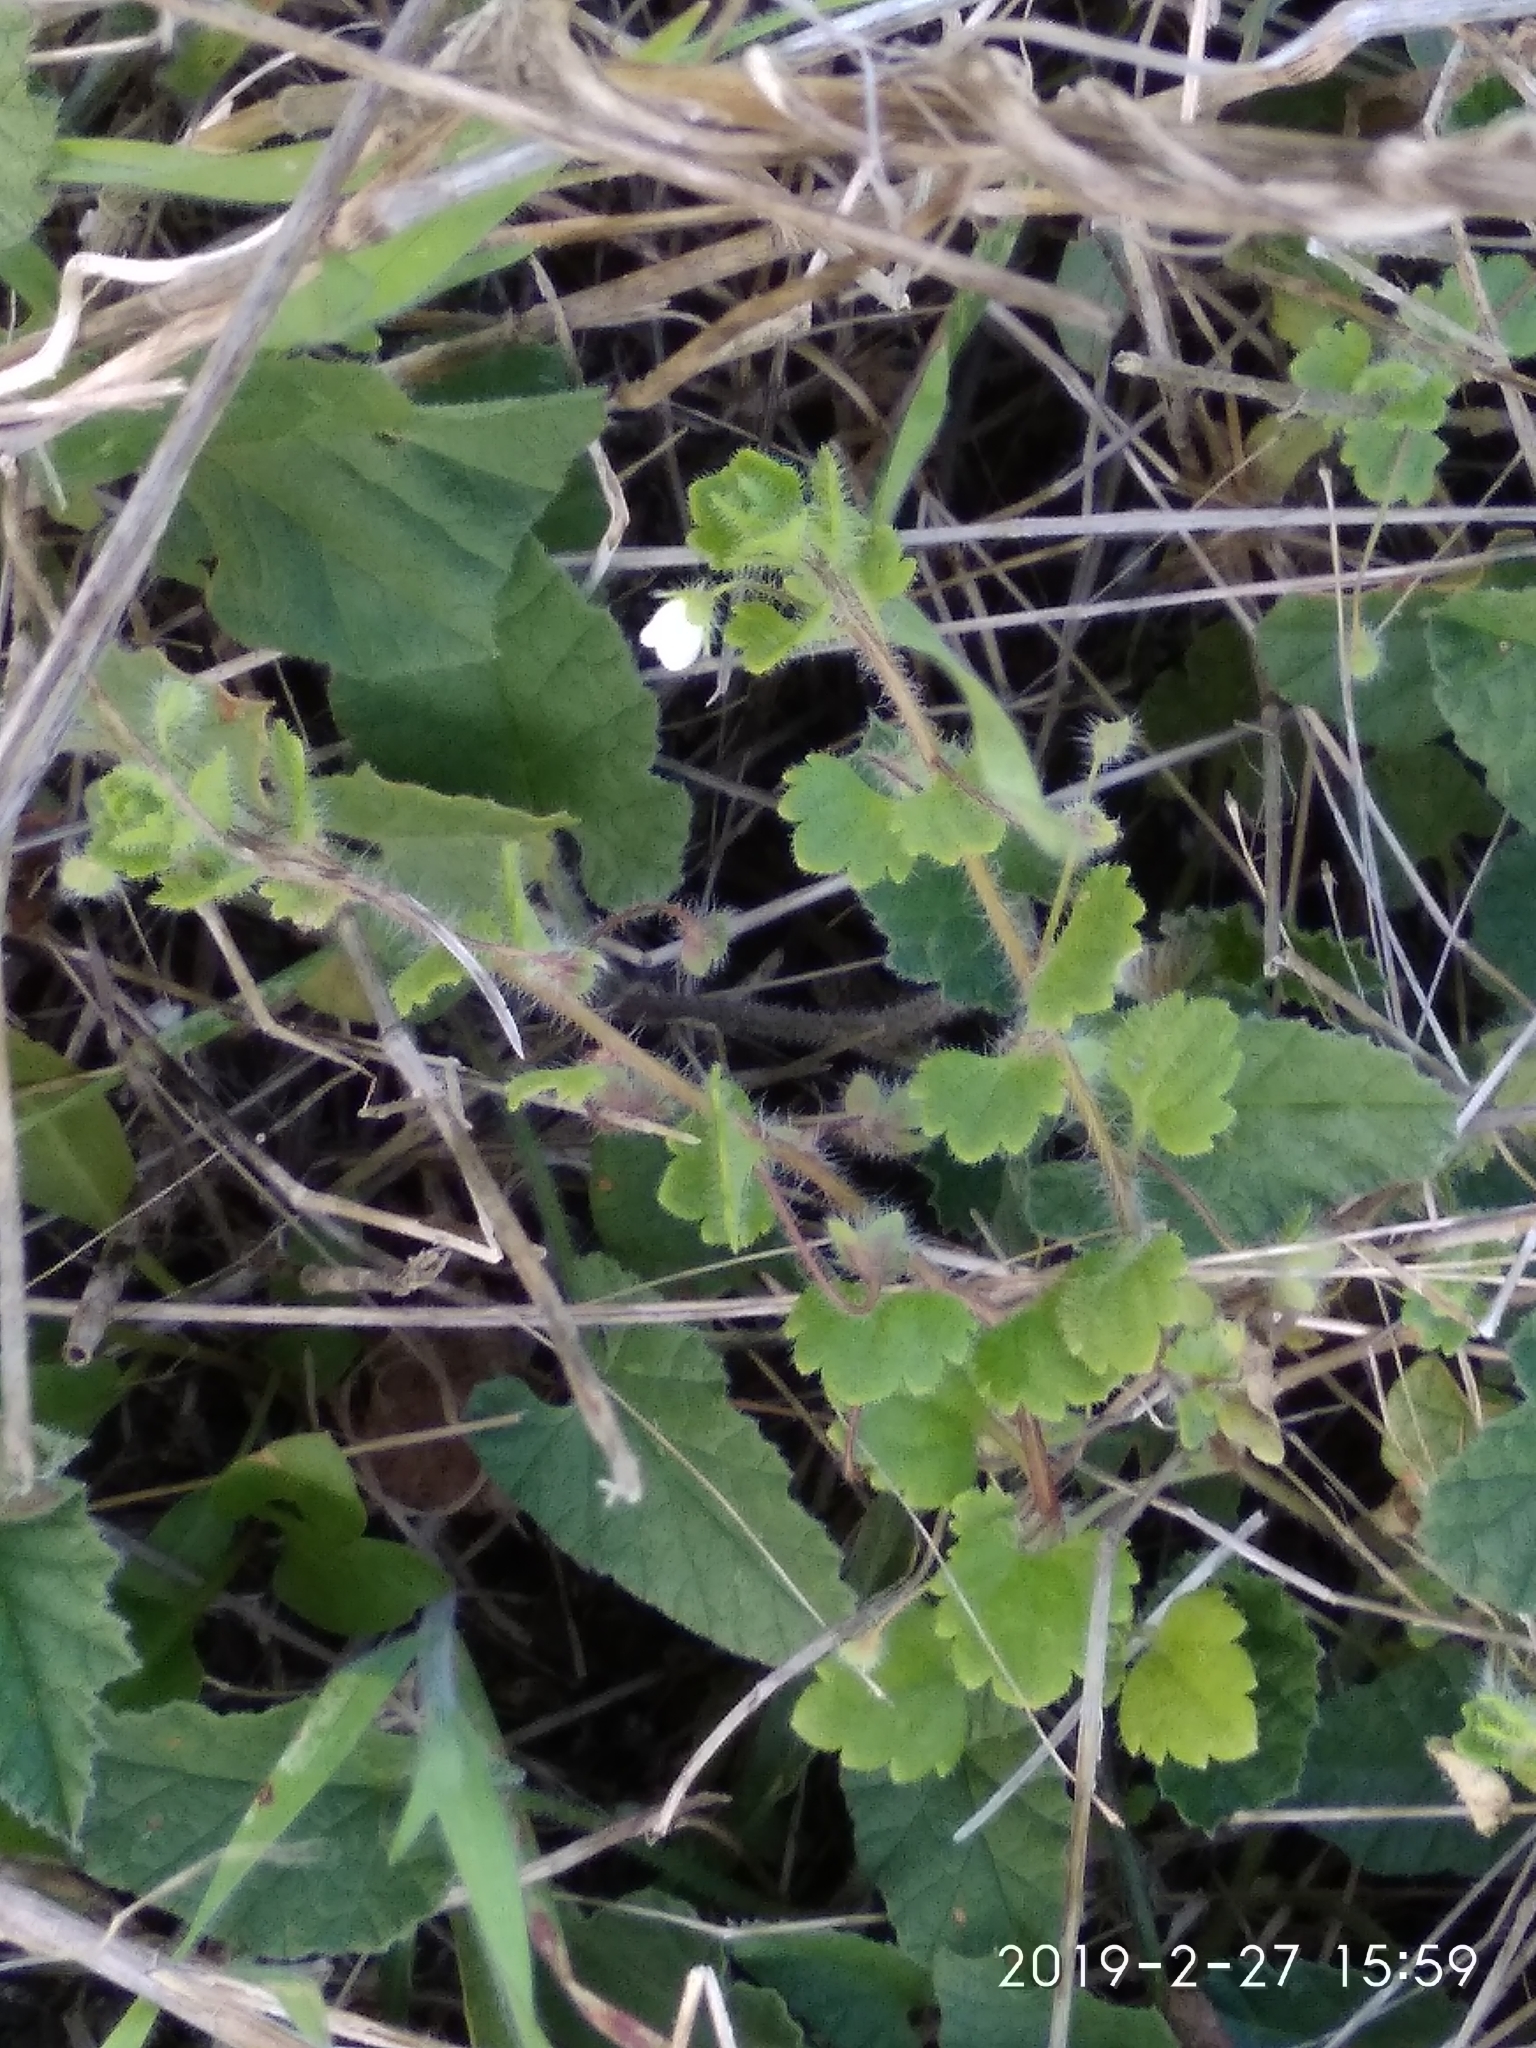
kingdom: Plantae
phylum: Tracheophyta
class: Magnoliopsida
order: Lamiales
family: Plantaginaceae
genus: Veronica
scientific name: Veronica cymbalaria
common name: Pale speedwell
